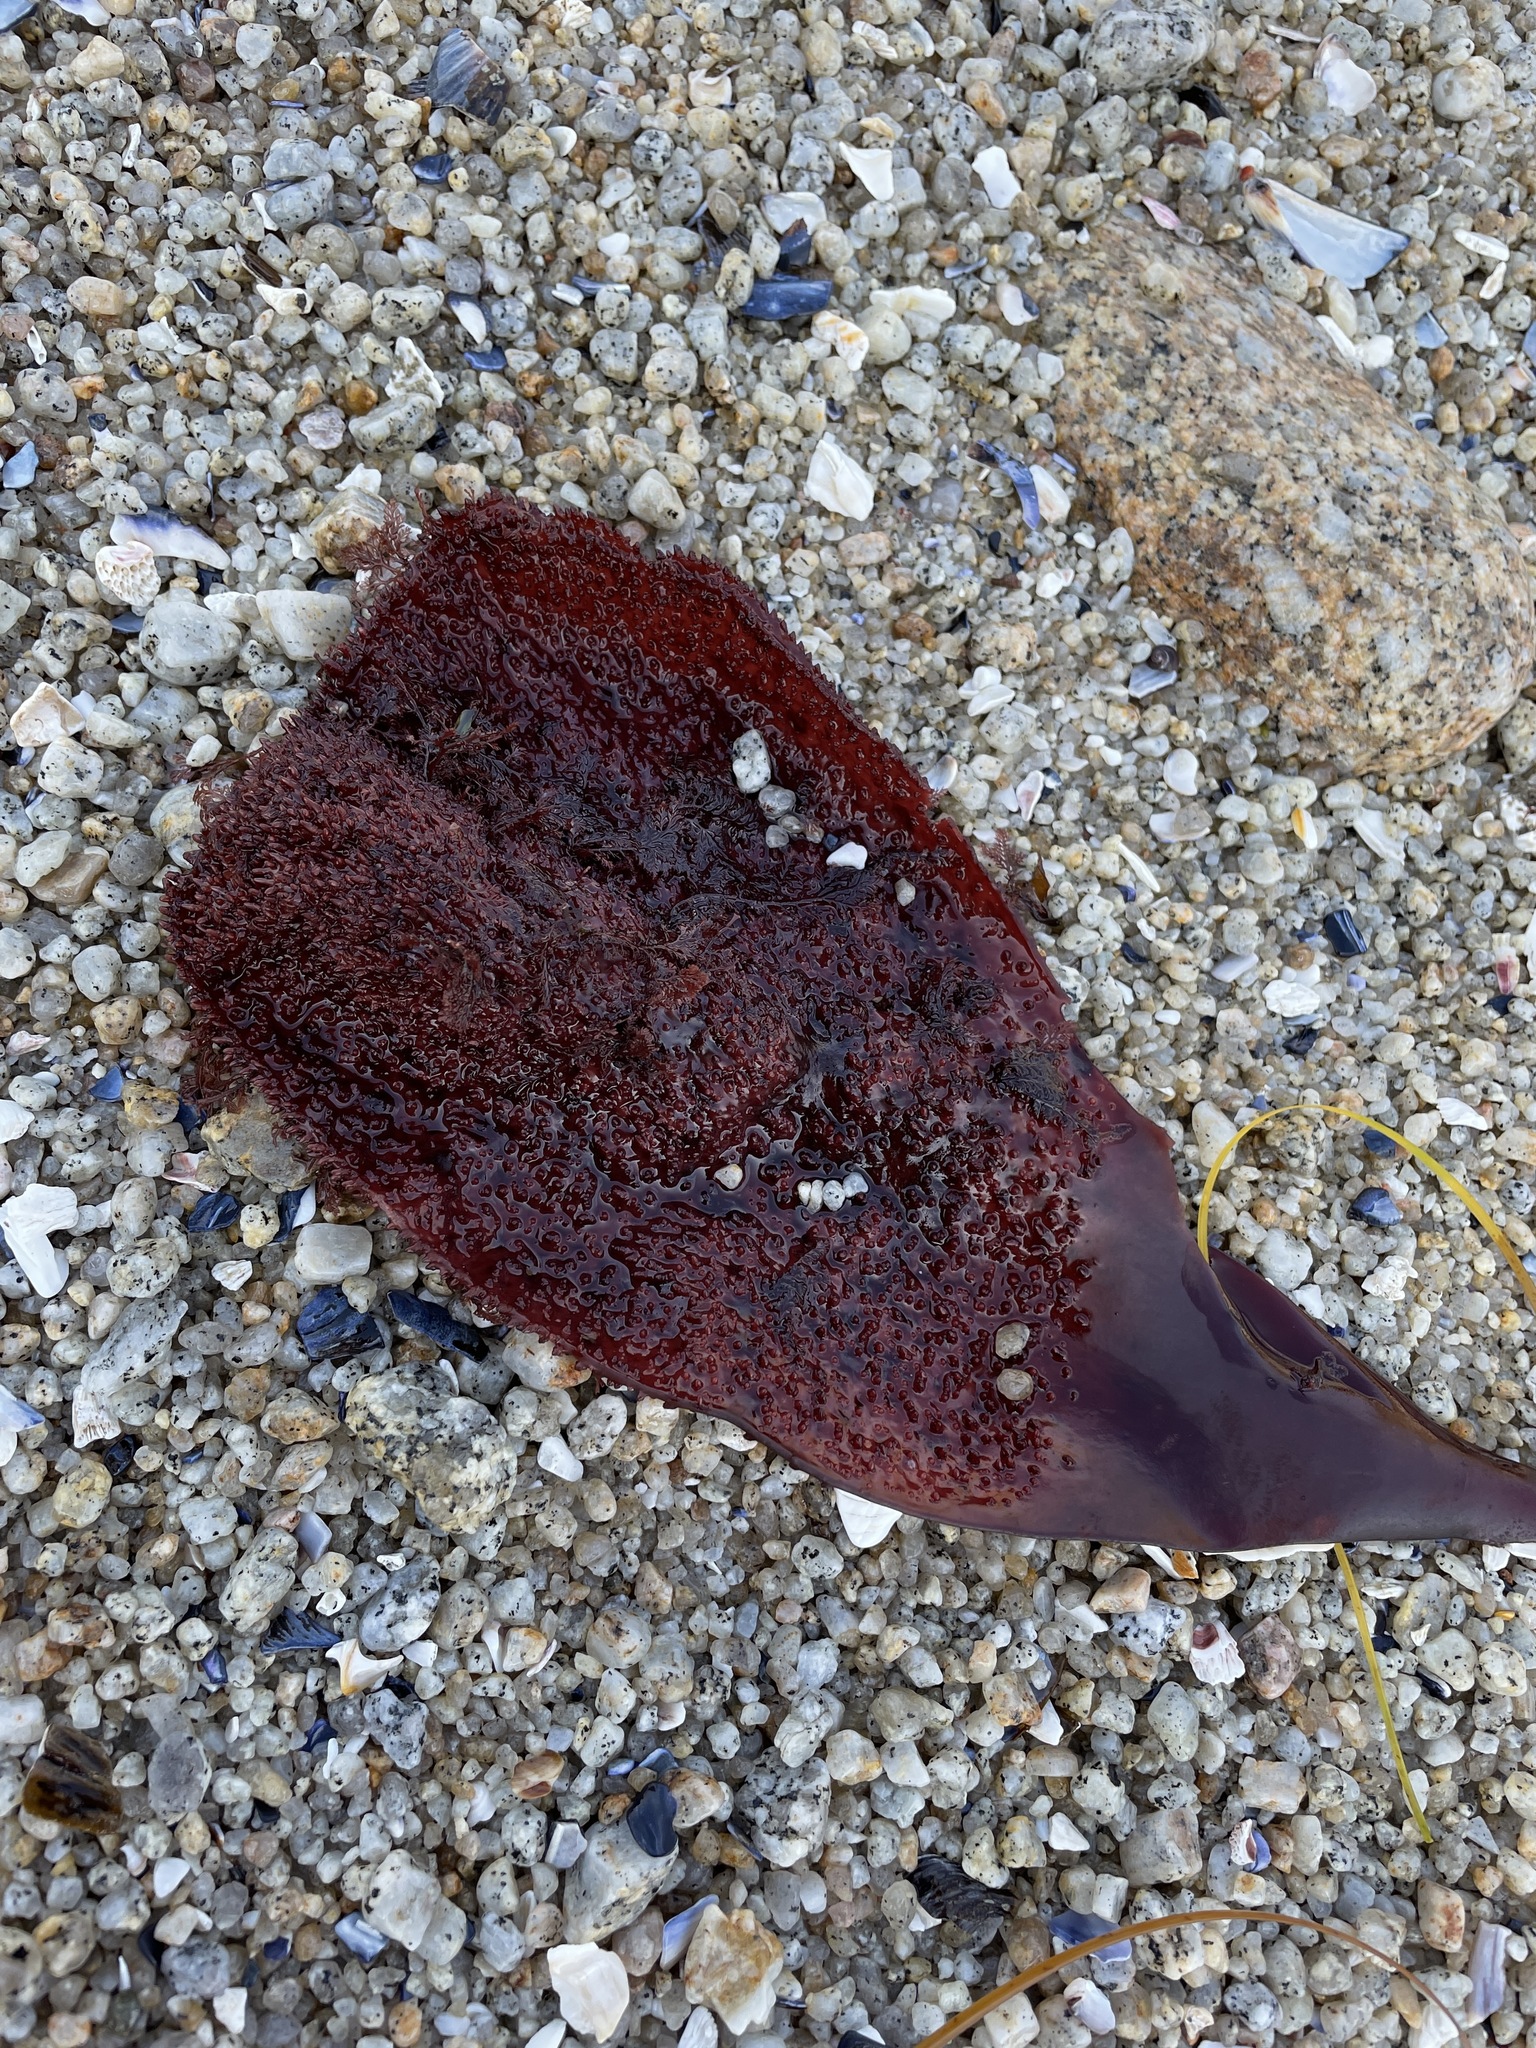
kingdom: Plantae
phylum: Rhodophyta
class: Florideophyceae
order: Gigartinales
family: Gigartinaceae
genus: Chondracanthus
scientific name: Chondracanthus exasperatus
